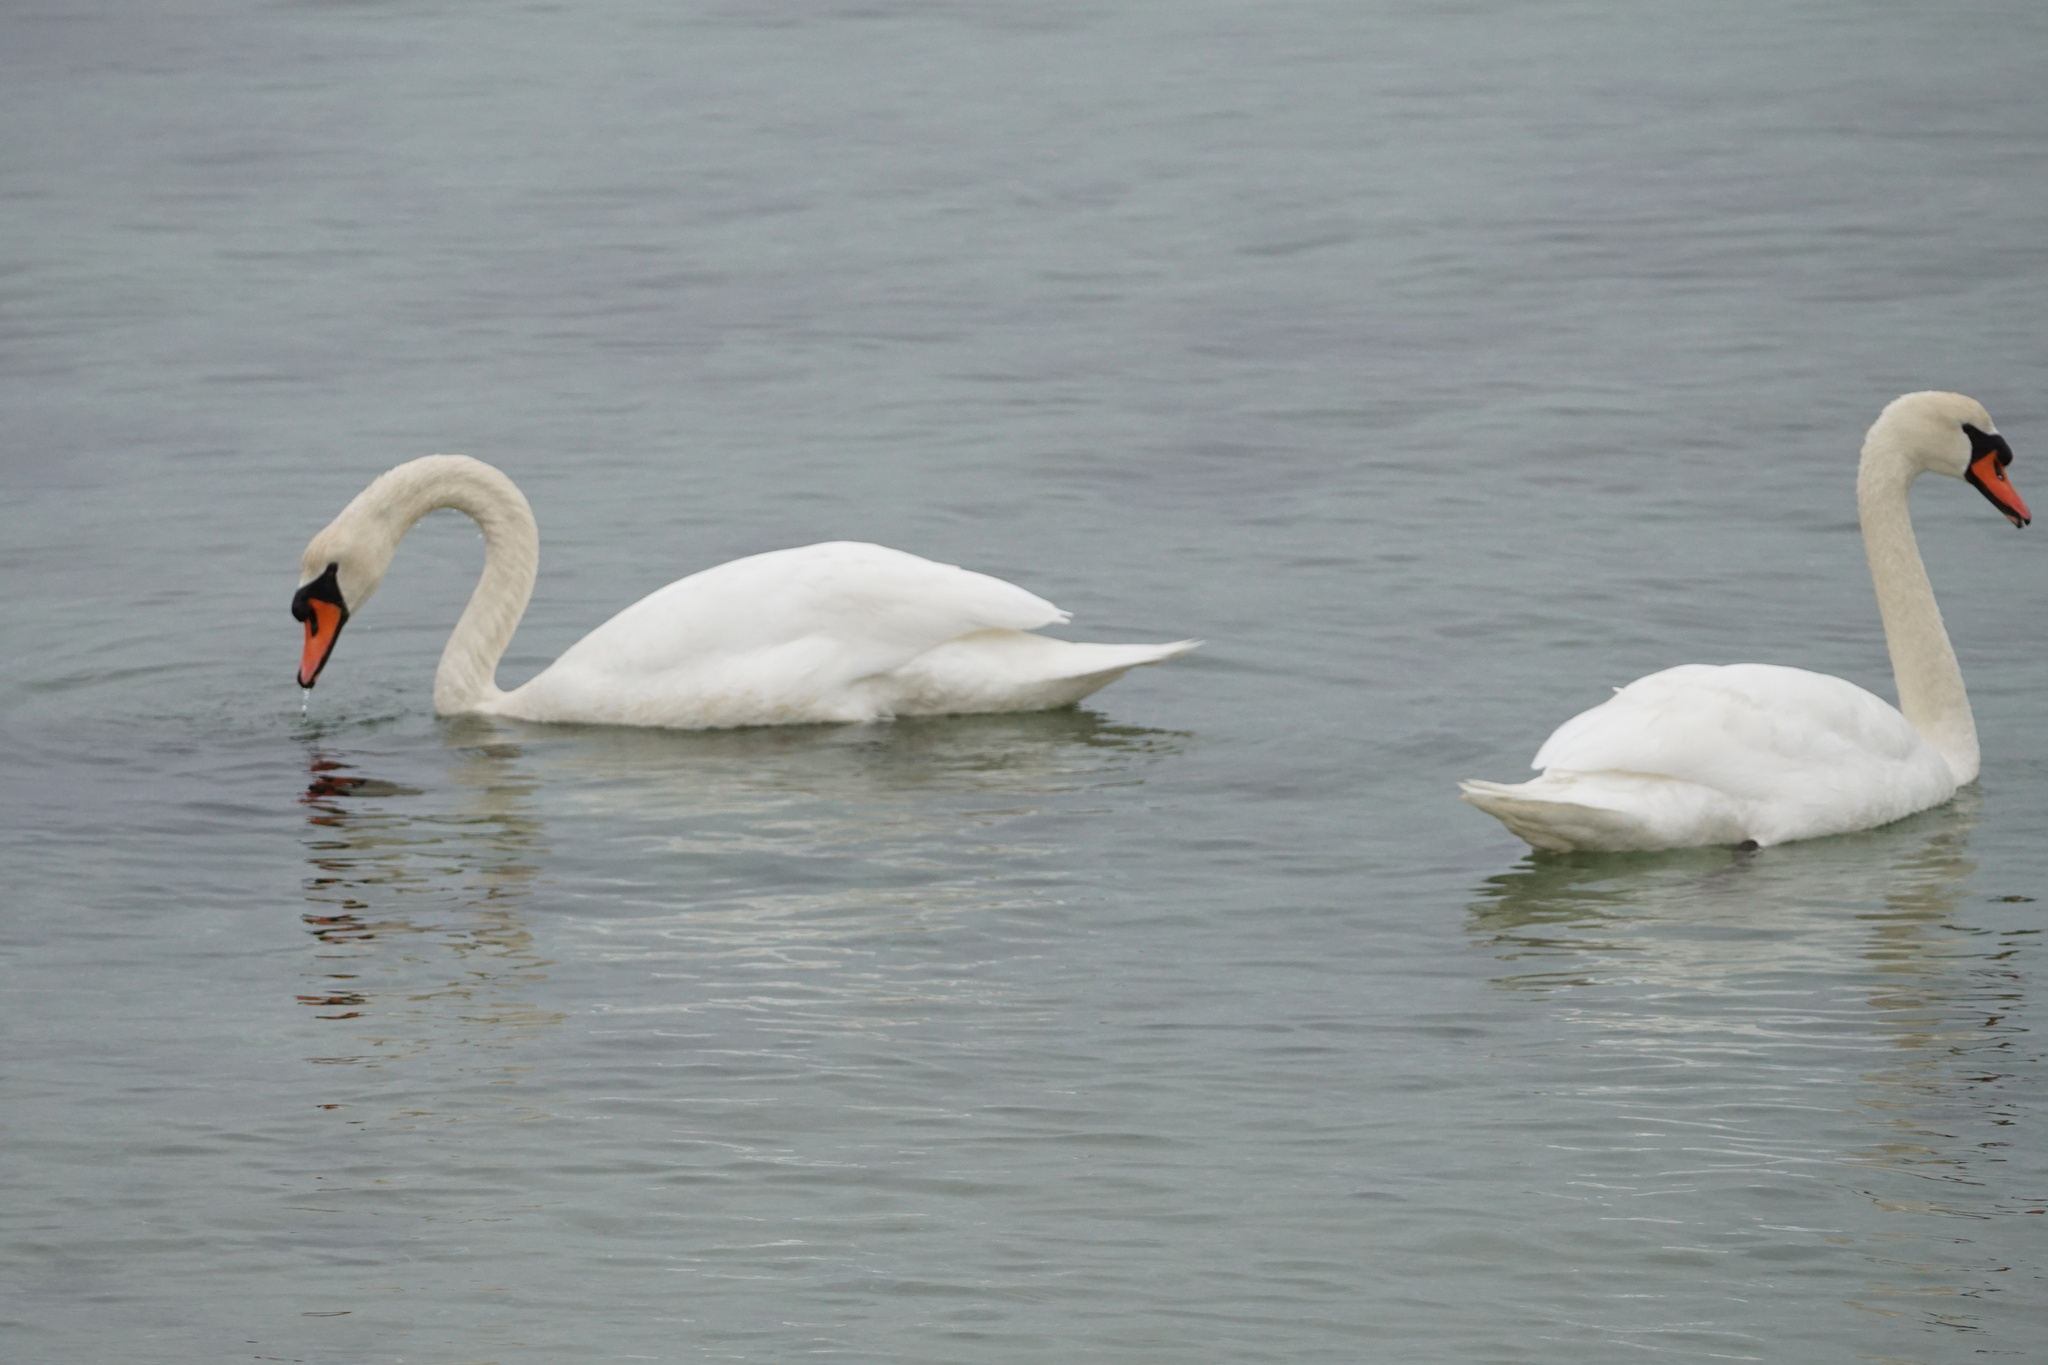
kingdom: Animalia
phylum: Chordata
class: Aves
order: Anseriformes
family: Anatidae
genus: Cygnus
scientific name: Cygnus olor
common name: Mute swan
